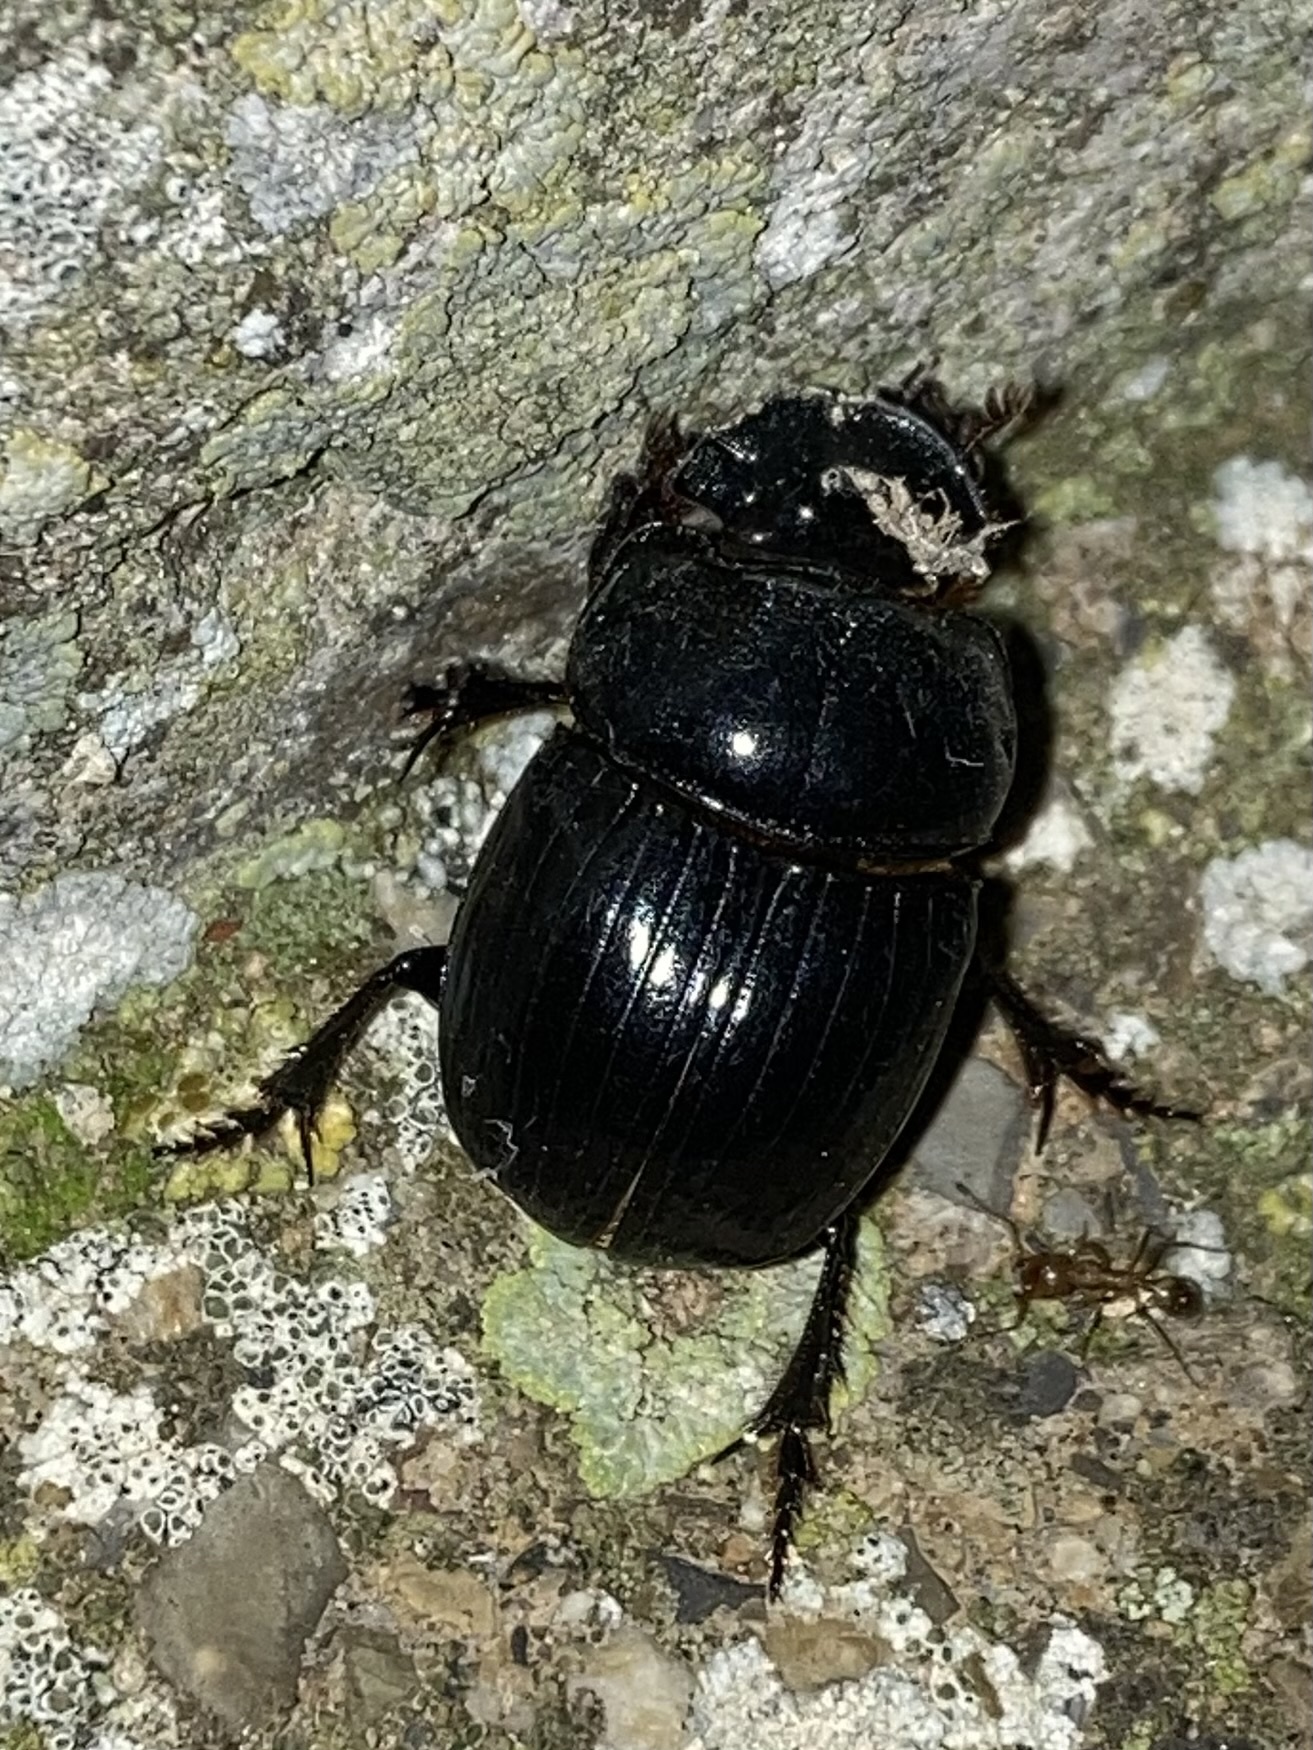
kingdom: Animalia
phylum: Arthropoda
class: Insecta
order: Coleoptera
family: Scarabaeidae
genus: Copris
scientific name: Copris lunaris
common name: Horned dung beetle
